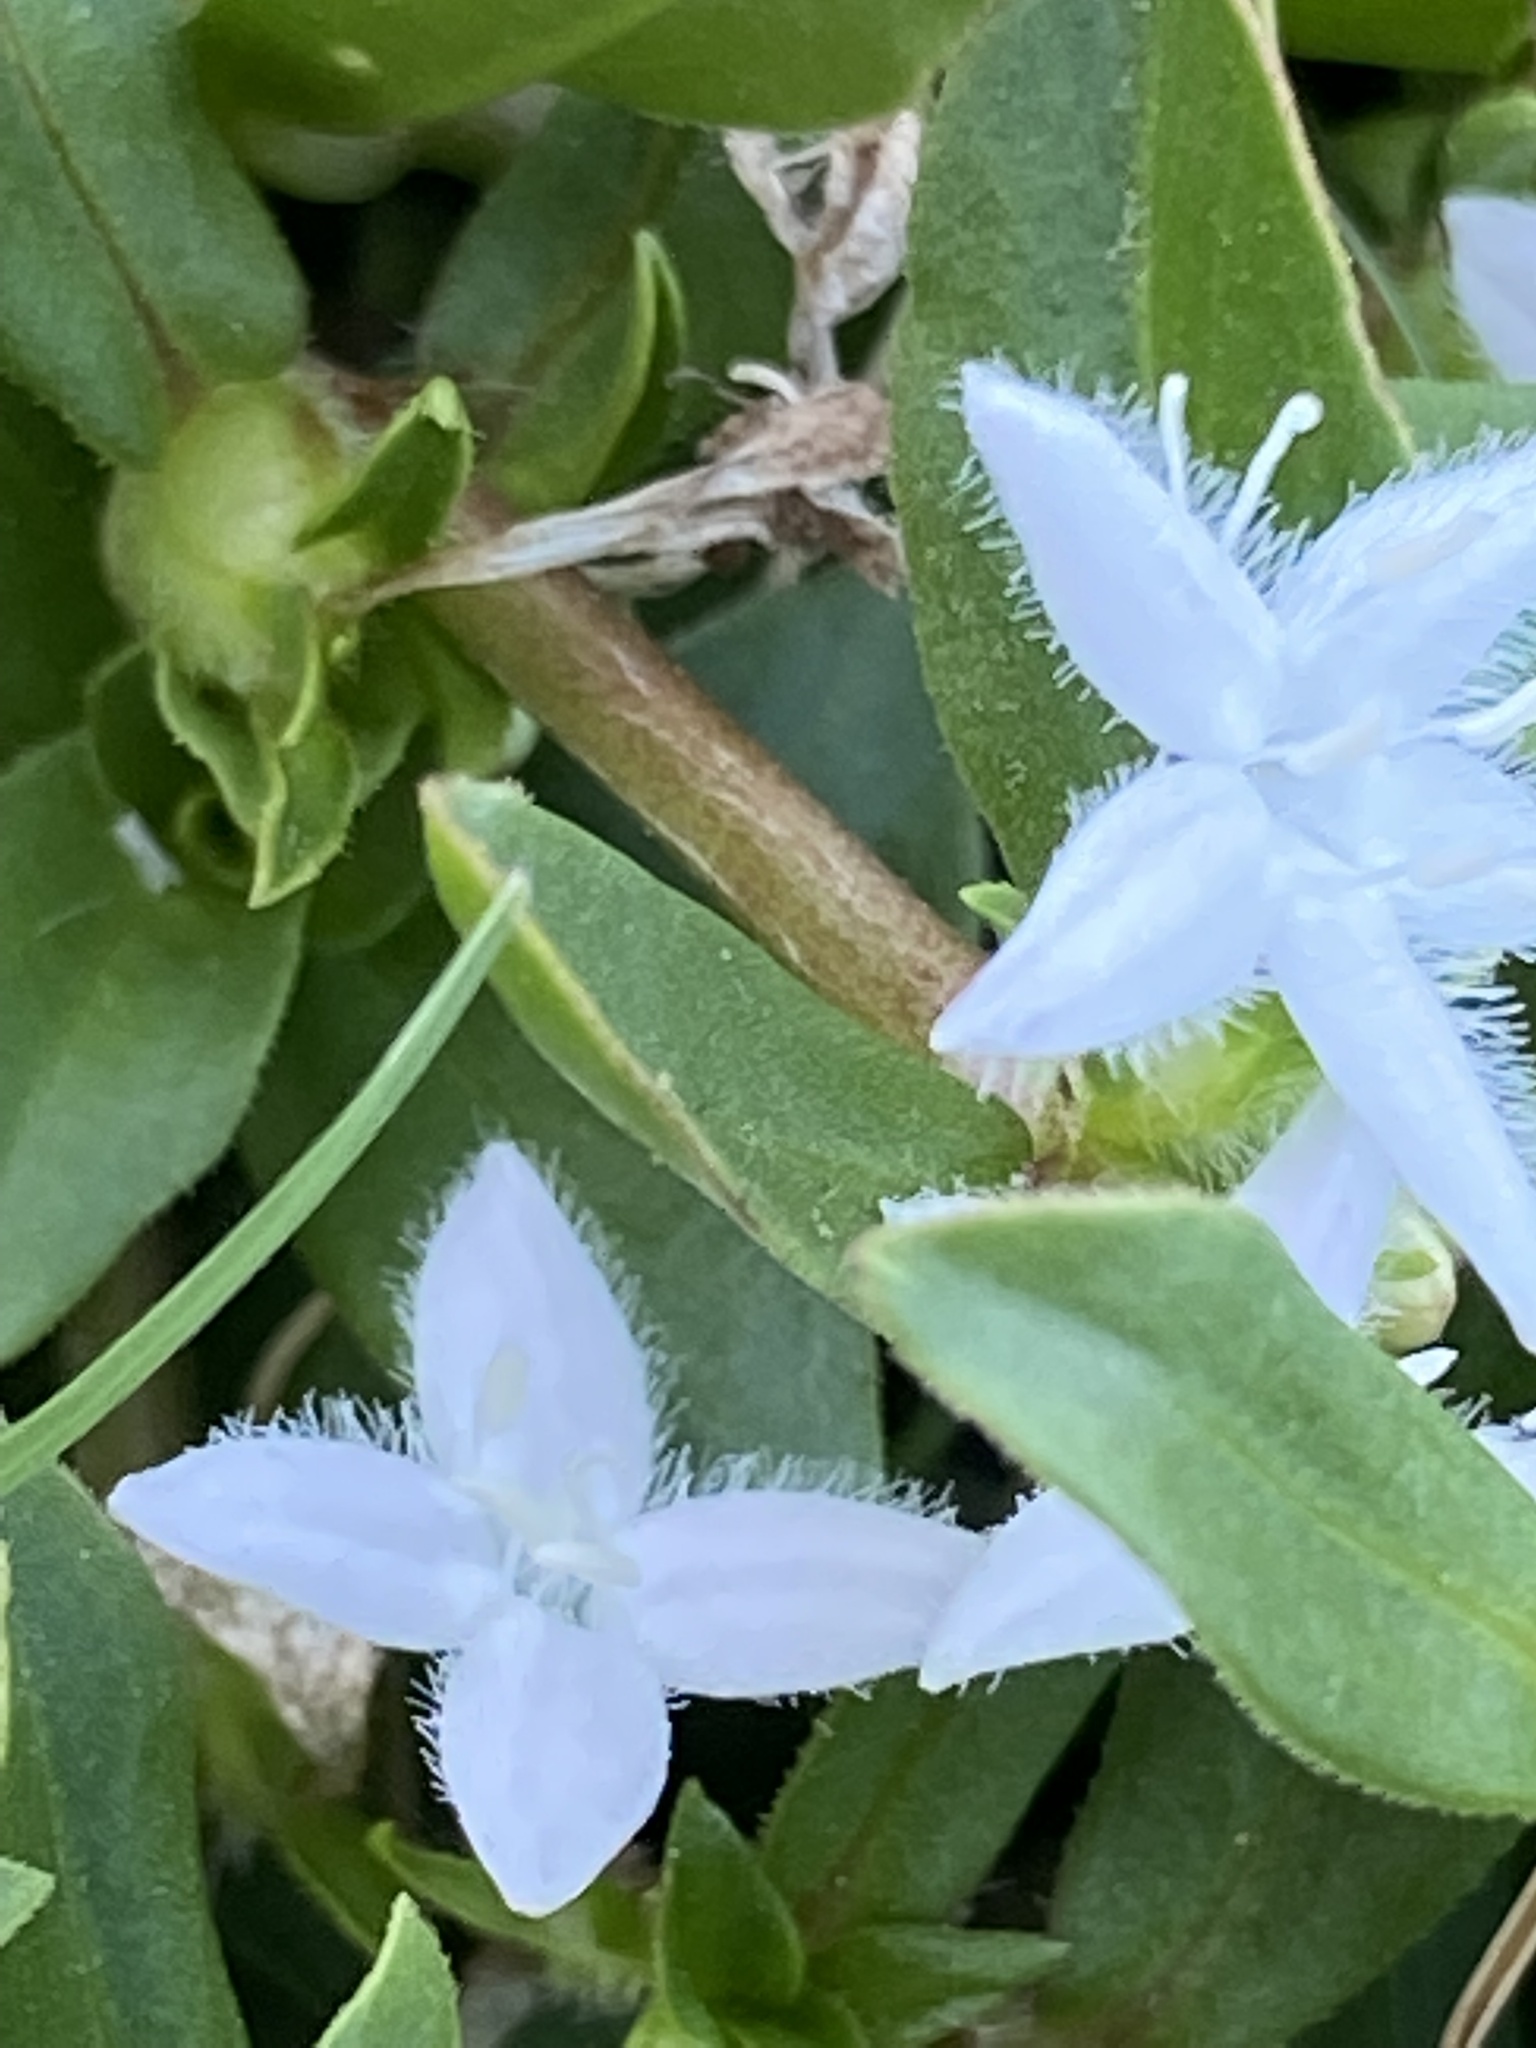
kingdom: Plantae
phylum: Tracheophyta
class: Magnoliopsida
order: Gentianales
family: Rubiaceae
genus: Diodia
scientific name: Diodia virginiana
